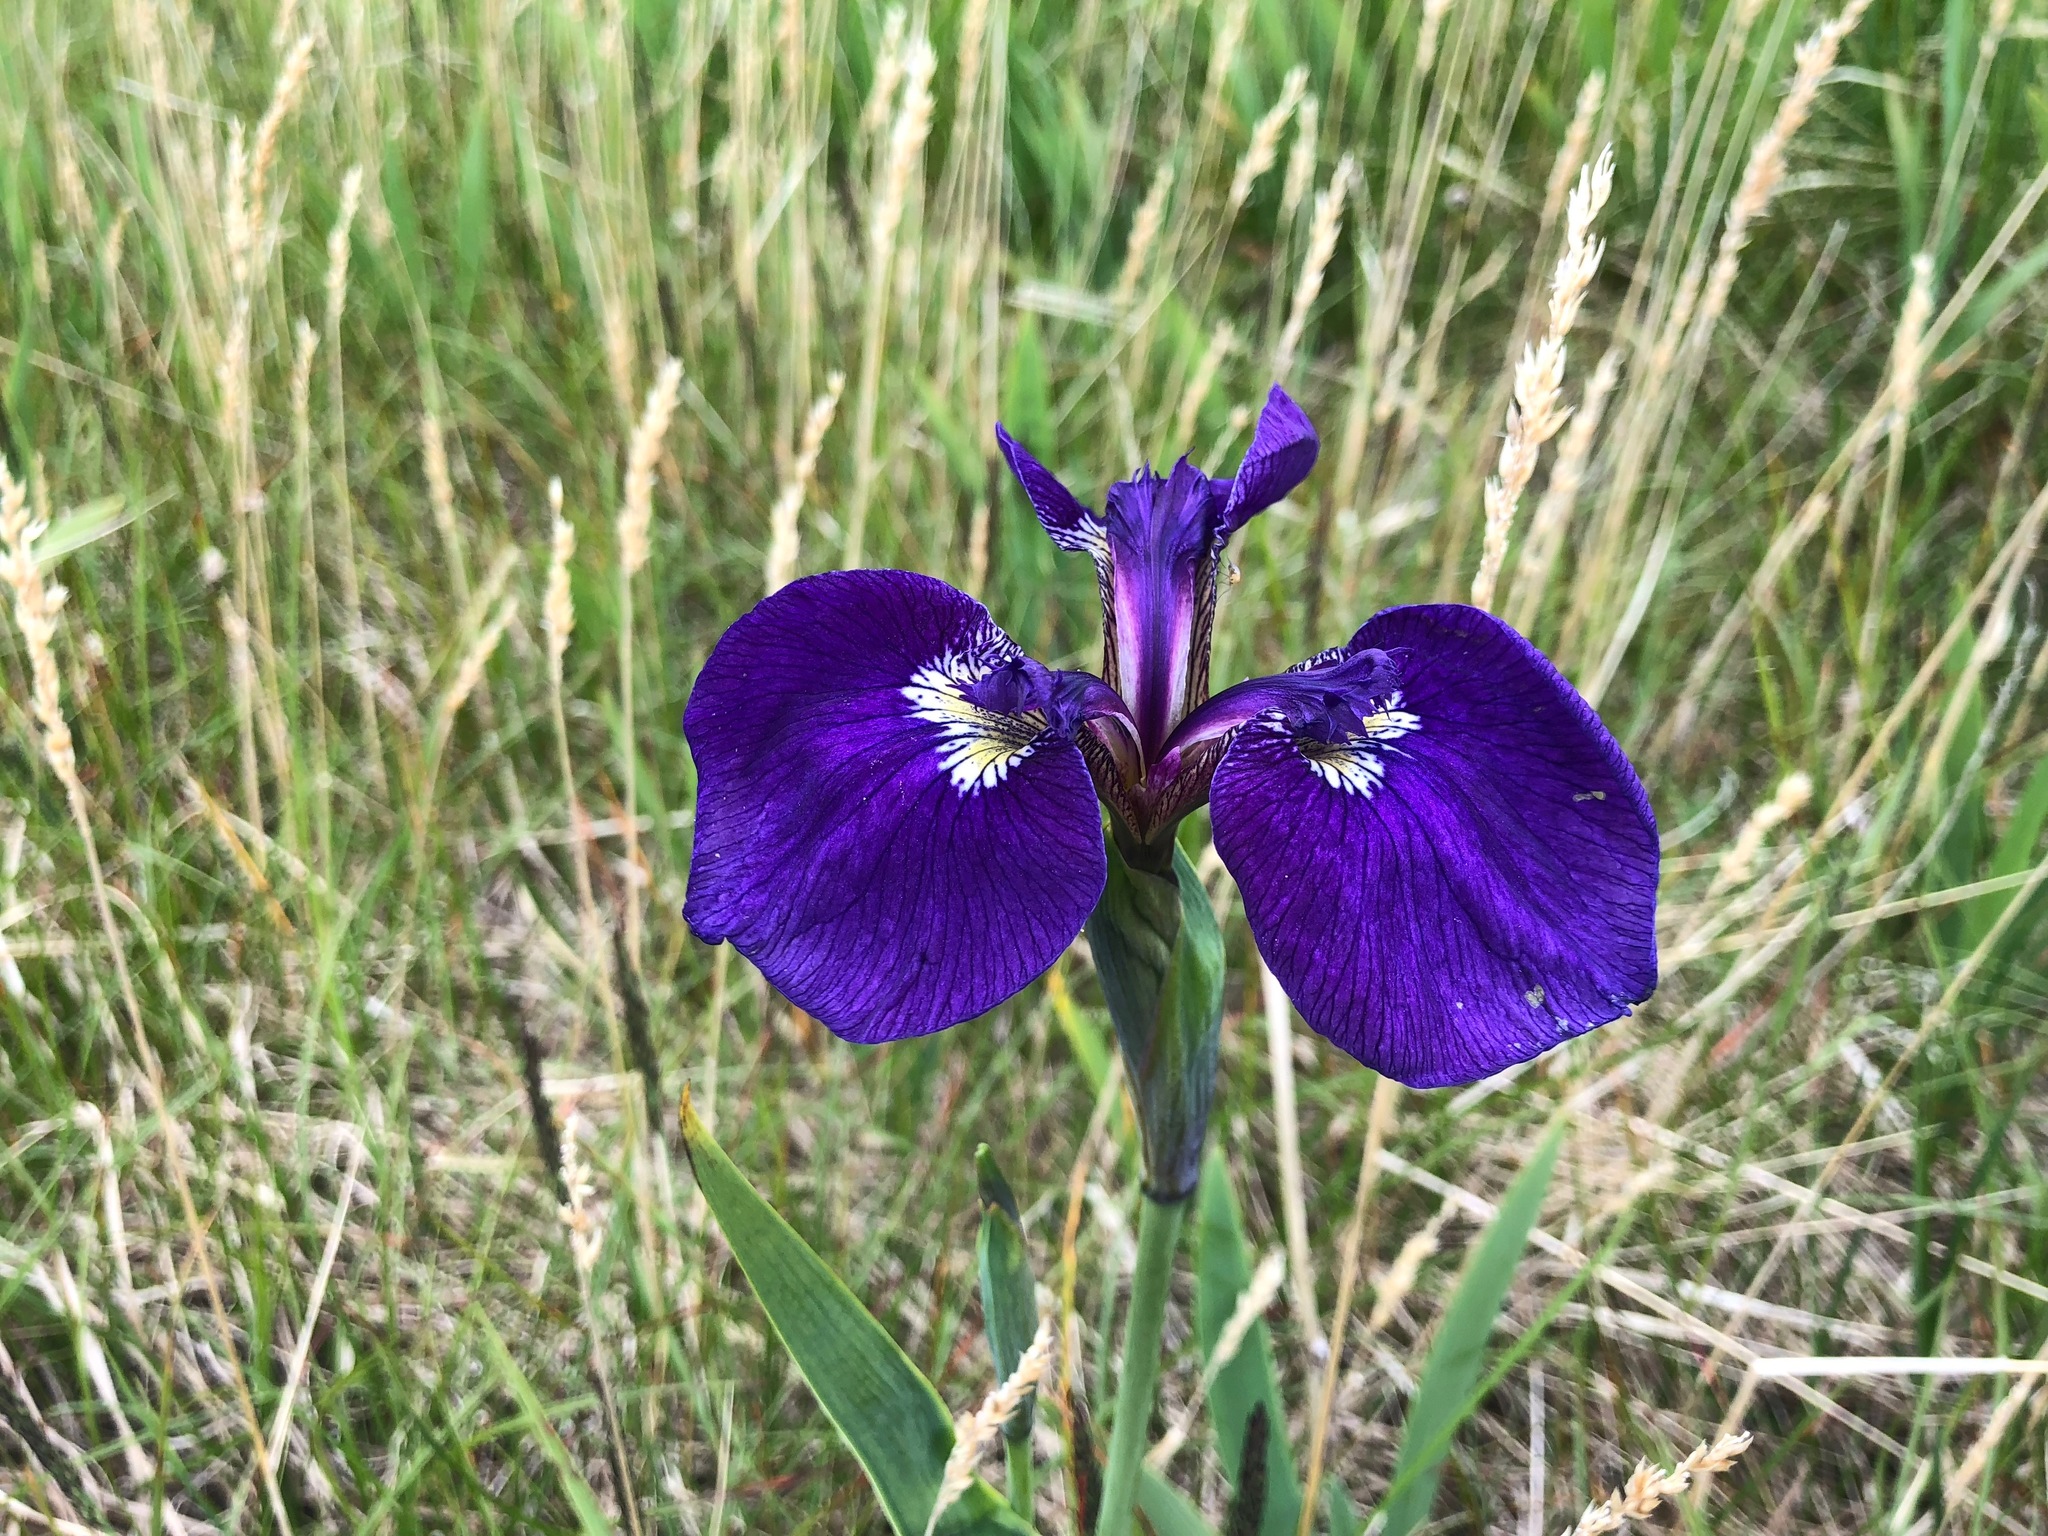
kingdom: Plantae
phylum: Tracheophyta
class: Liliopsida
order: Asparagales
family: Iridaceae
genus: Iris
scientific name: Iris setosa
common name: Arctic blue flag
